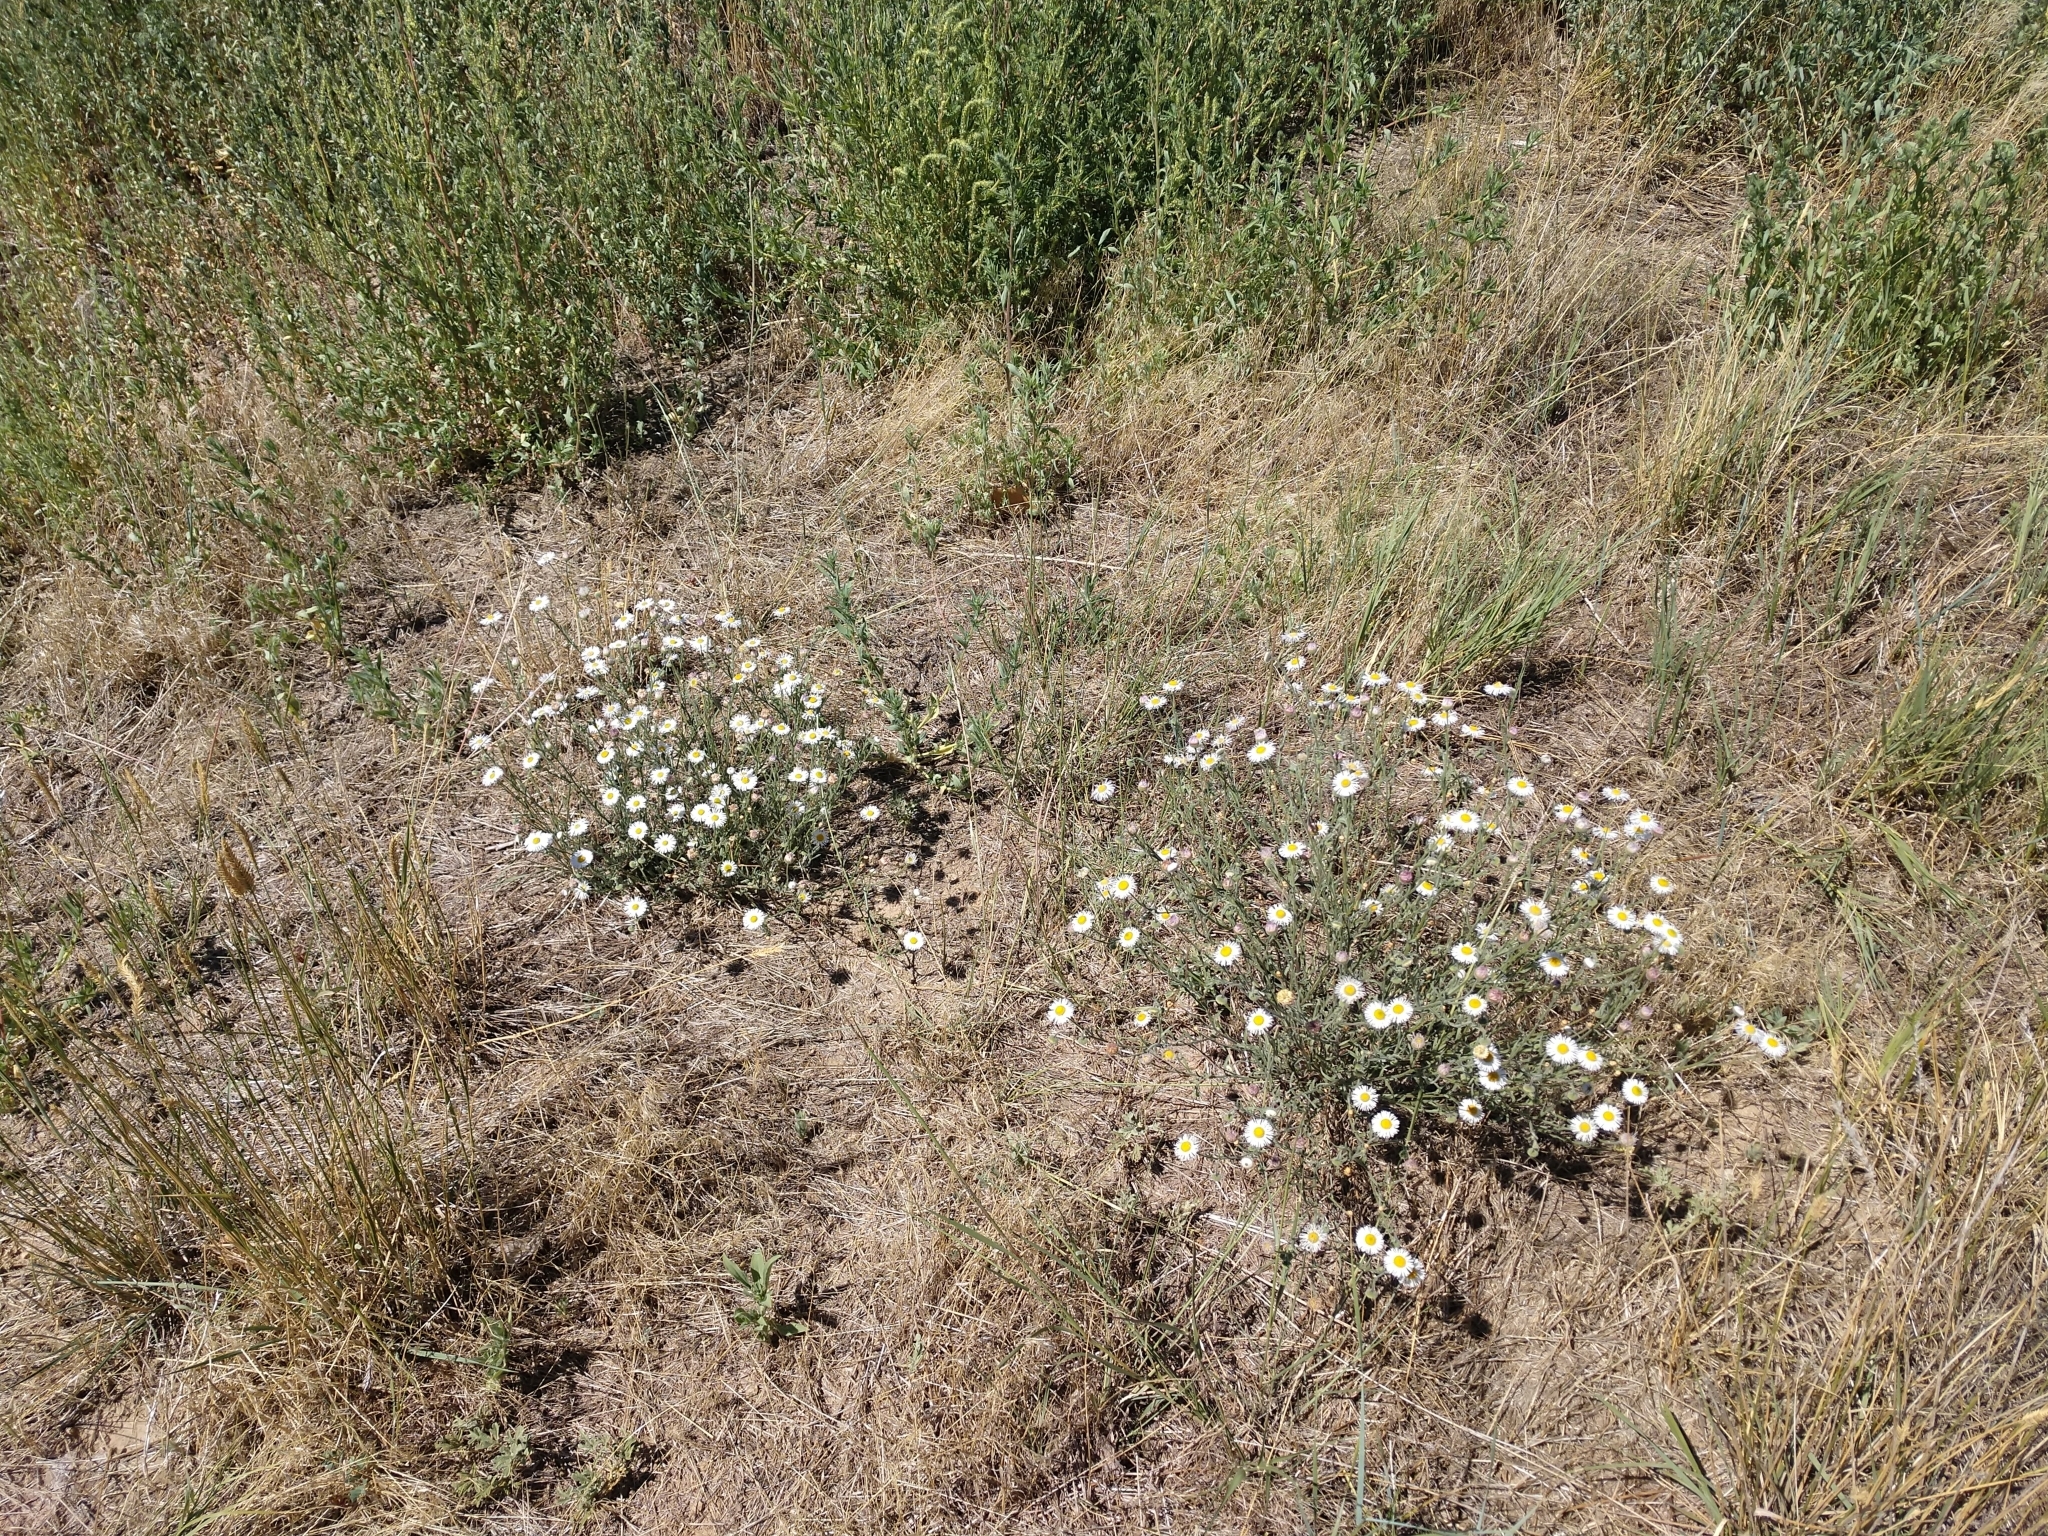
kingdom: Plantae
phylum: Tracheophyta
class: Magnoliopsida
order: Asterales
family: Asteraceae
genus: Erigeron
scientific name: Erigeron divergens
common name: Diffuse fleabane
